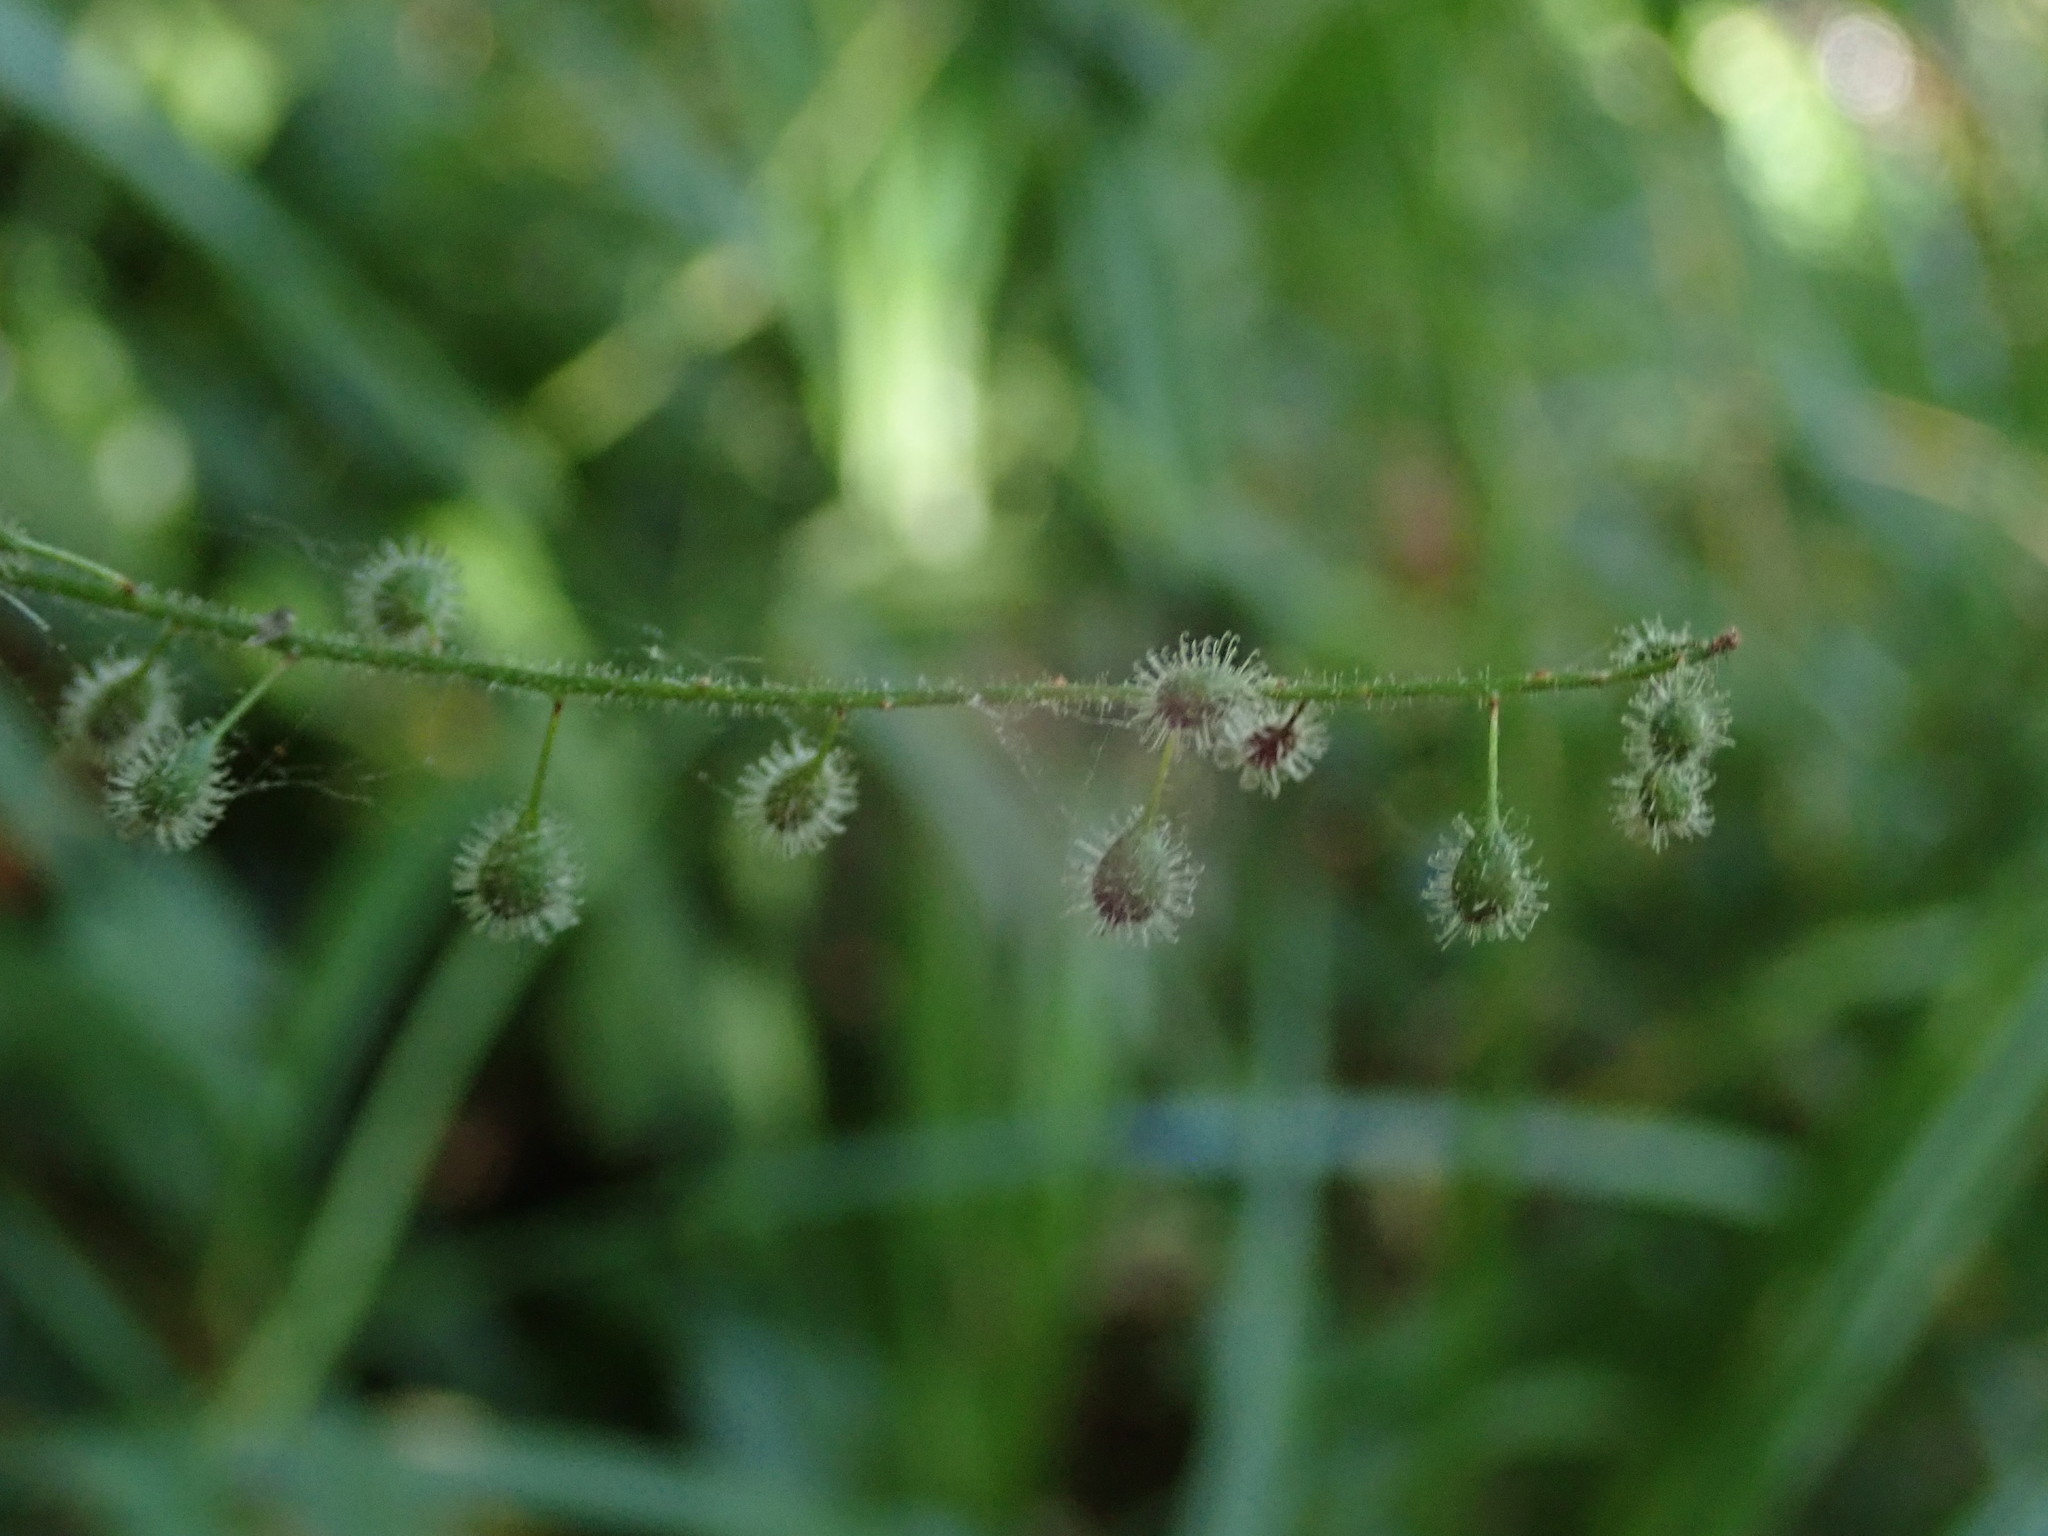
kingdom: Plantae
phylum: Tracheophyta
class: Magnoliopsida
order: Myrtales
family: Onagraceae
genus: Circaea
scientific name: Circaea lutetiana
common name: Enchanter's-nightshade
